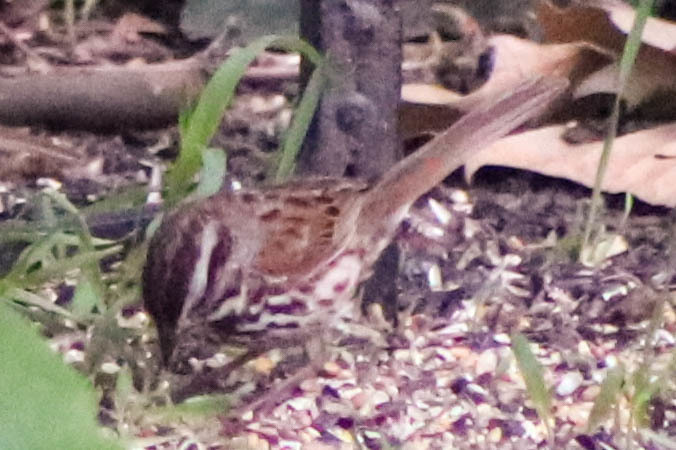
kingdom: Animalia
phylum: Chordata
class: Aves
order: Passeriformes
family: Passerellidae
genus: Melospiza
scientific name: Melospiza melodia
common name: Song sparrow
